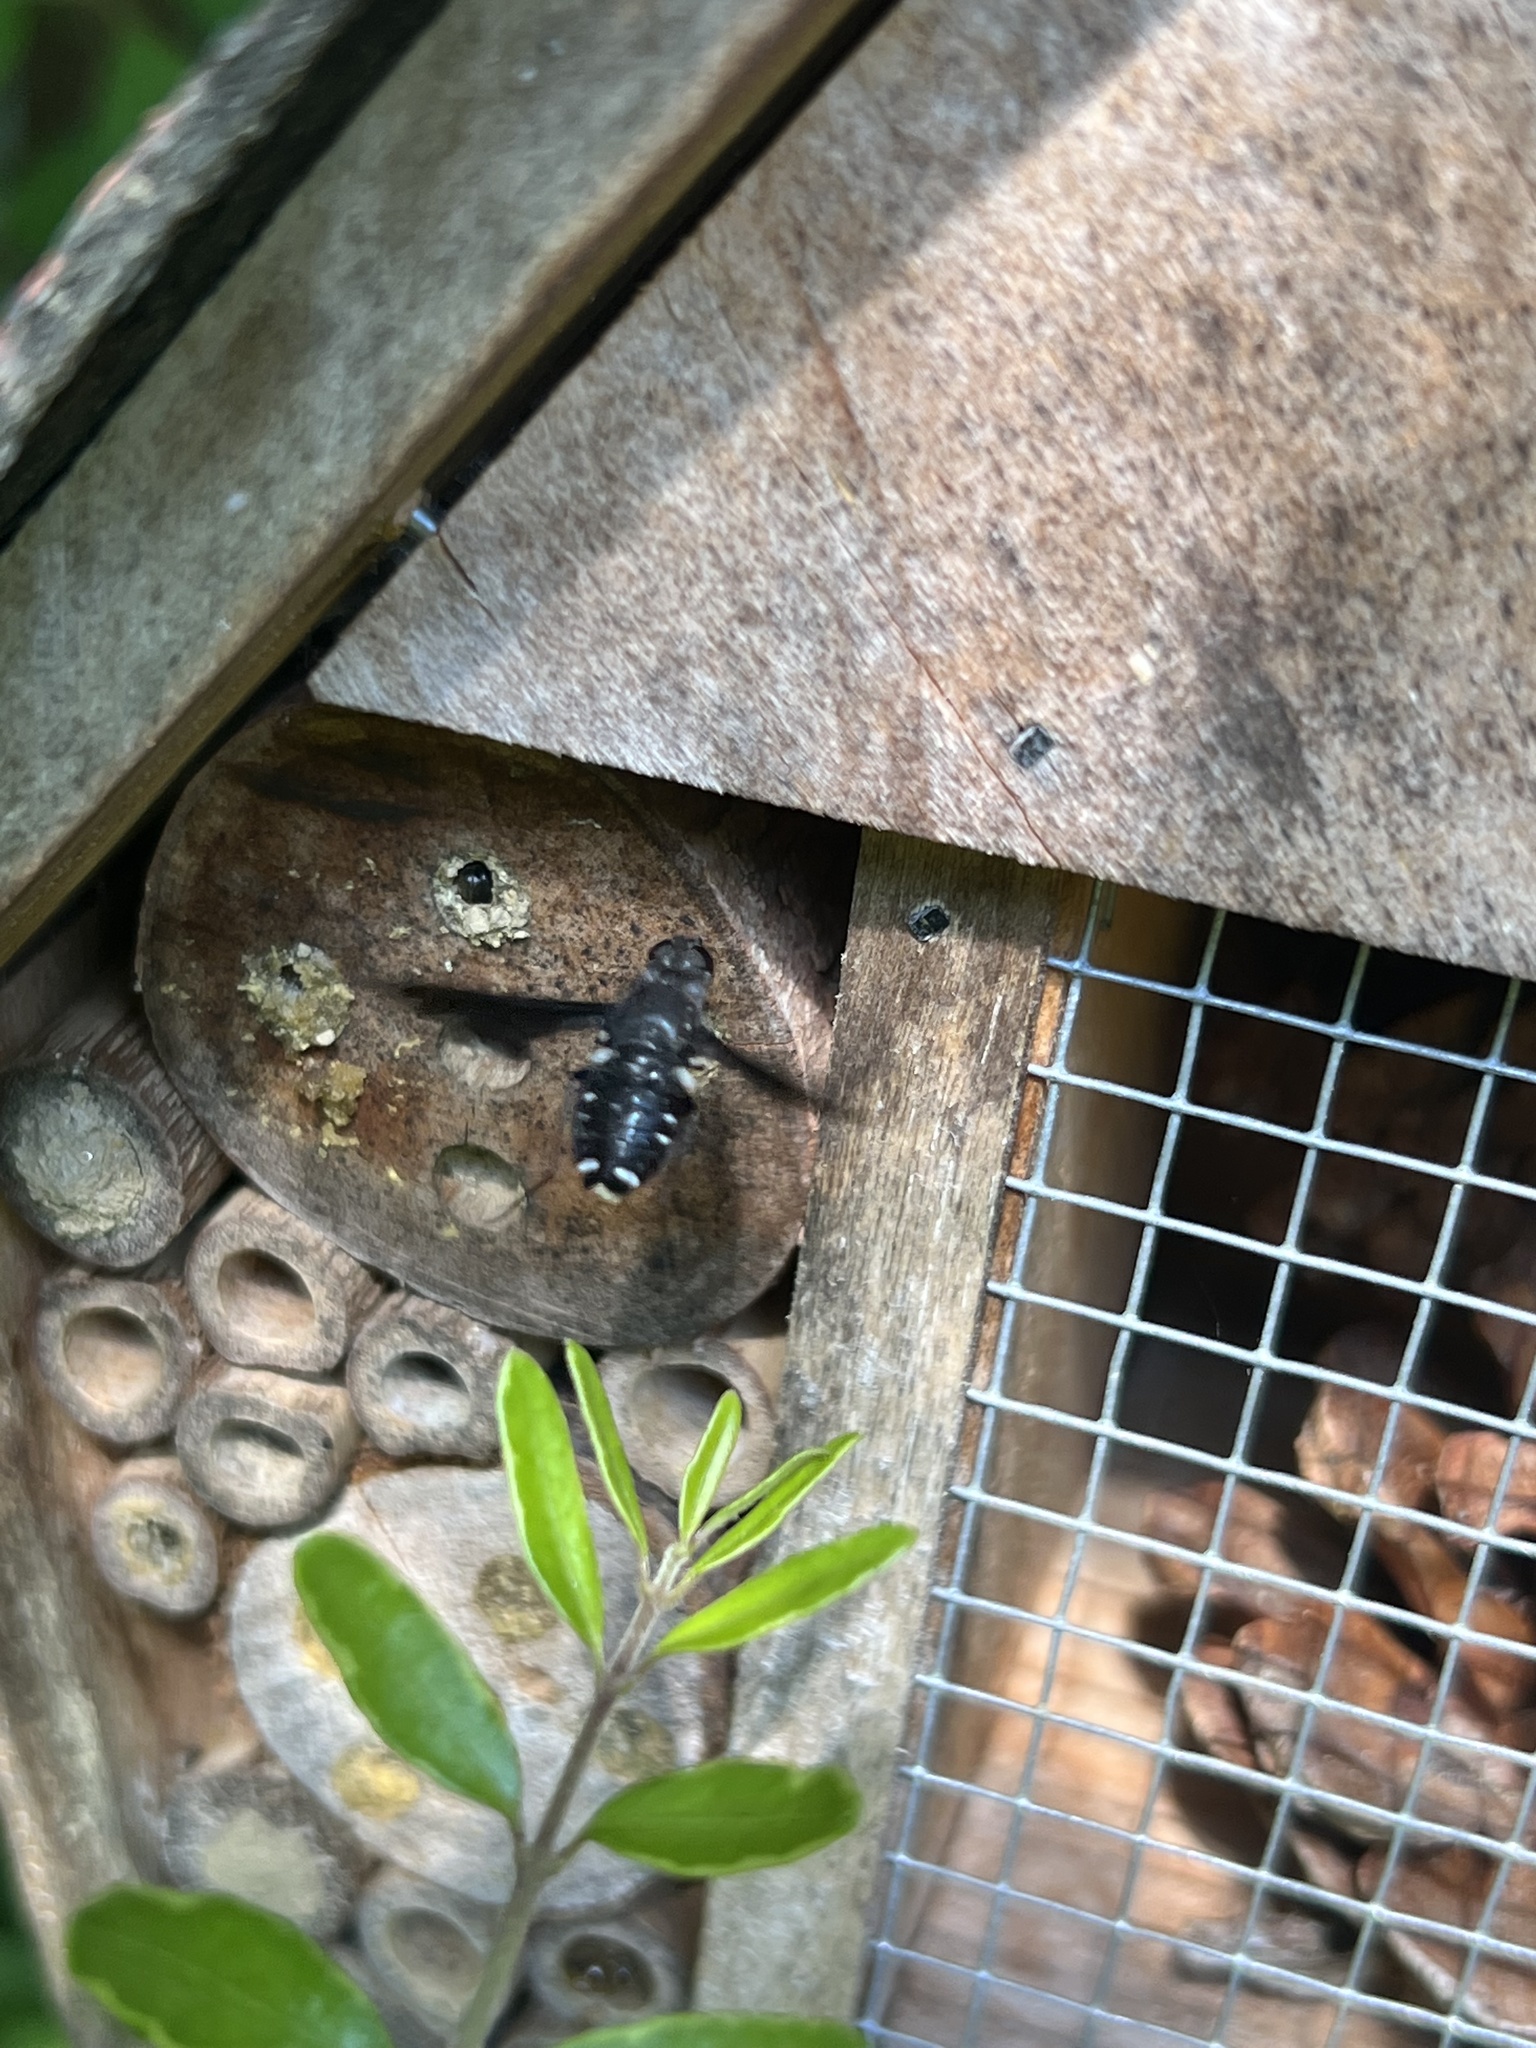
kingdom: Animalia
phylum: Arthropoda
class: Insecta
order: Diptera
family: Bombyliidae
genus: Anthrax
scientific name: Anthrax anthrax
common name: Anthracite bee-fly
